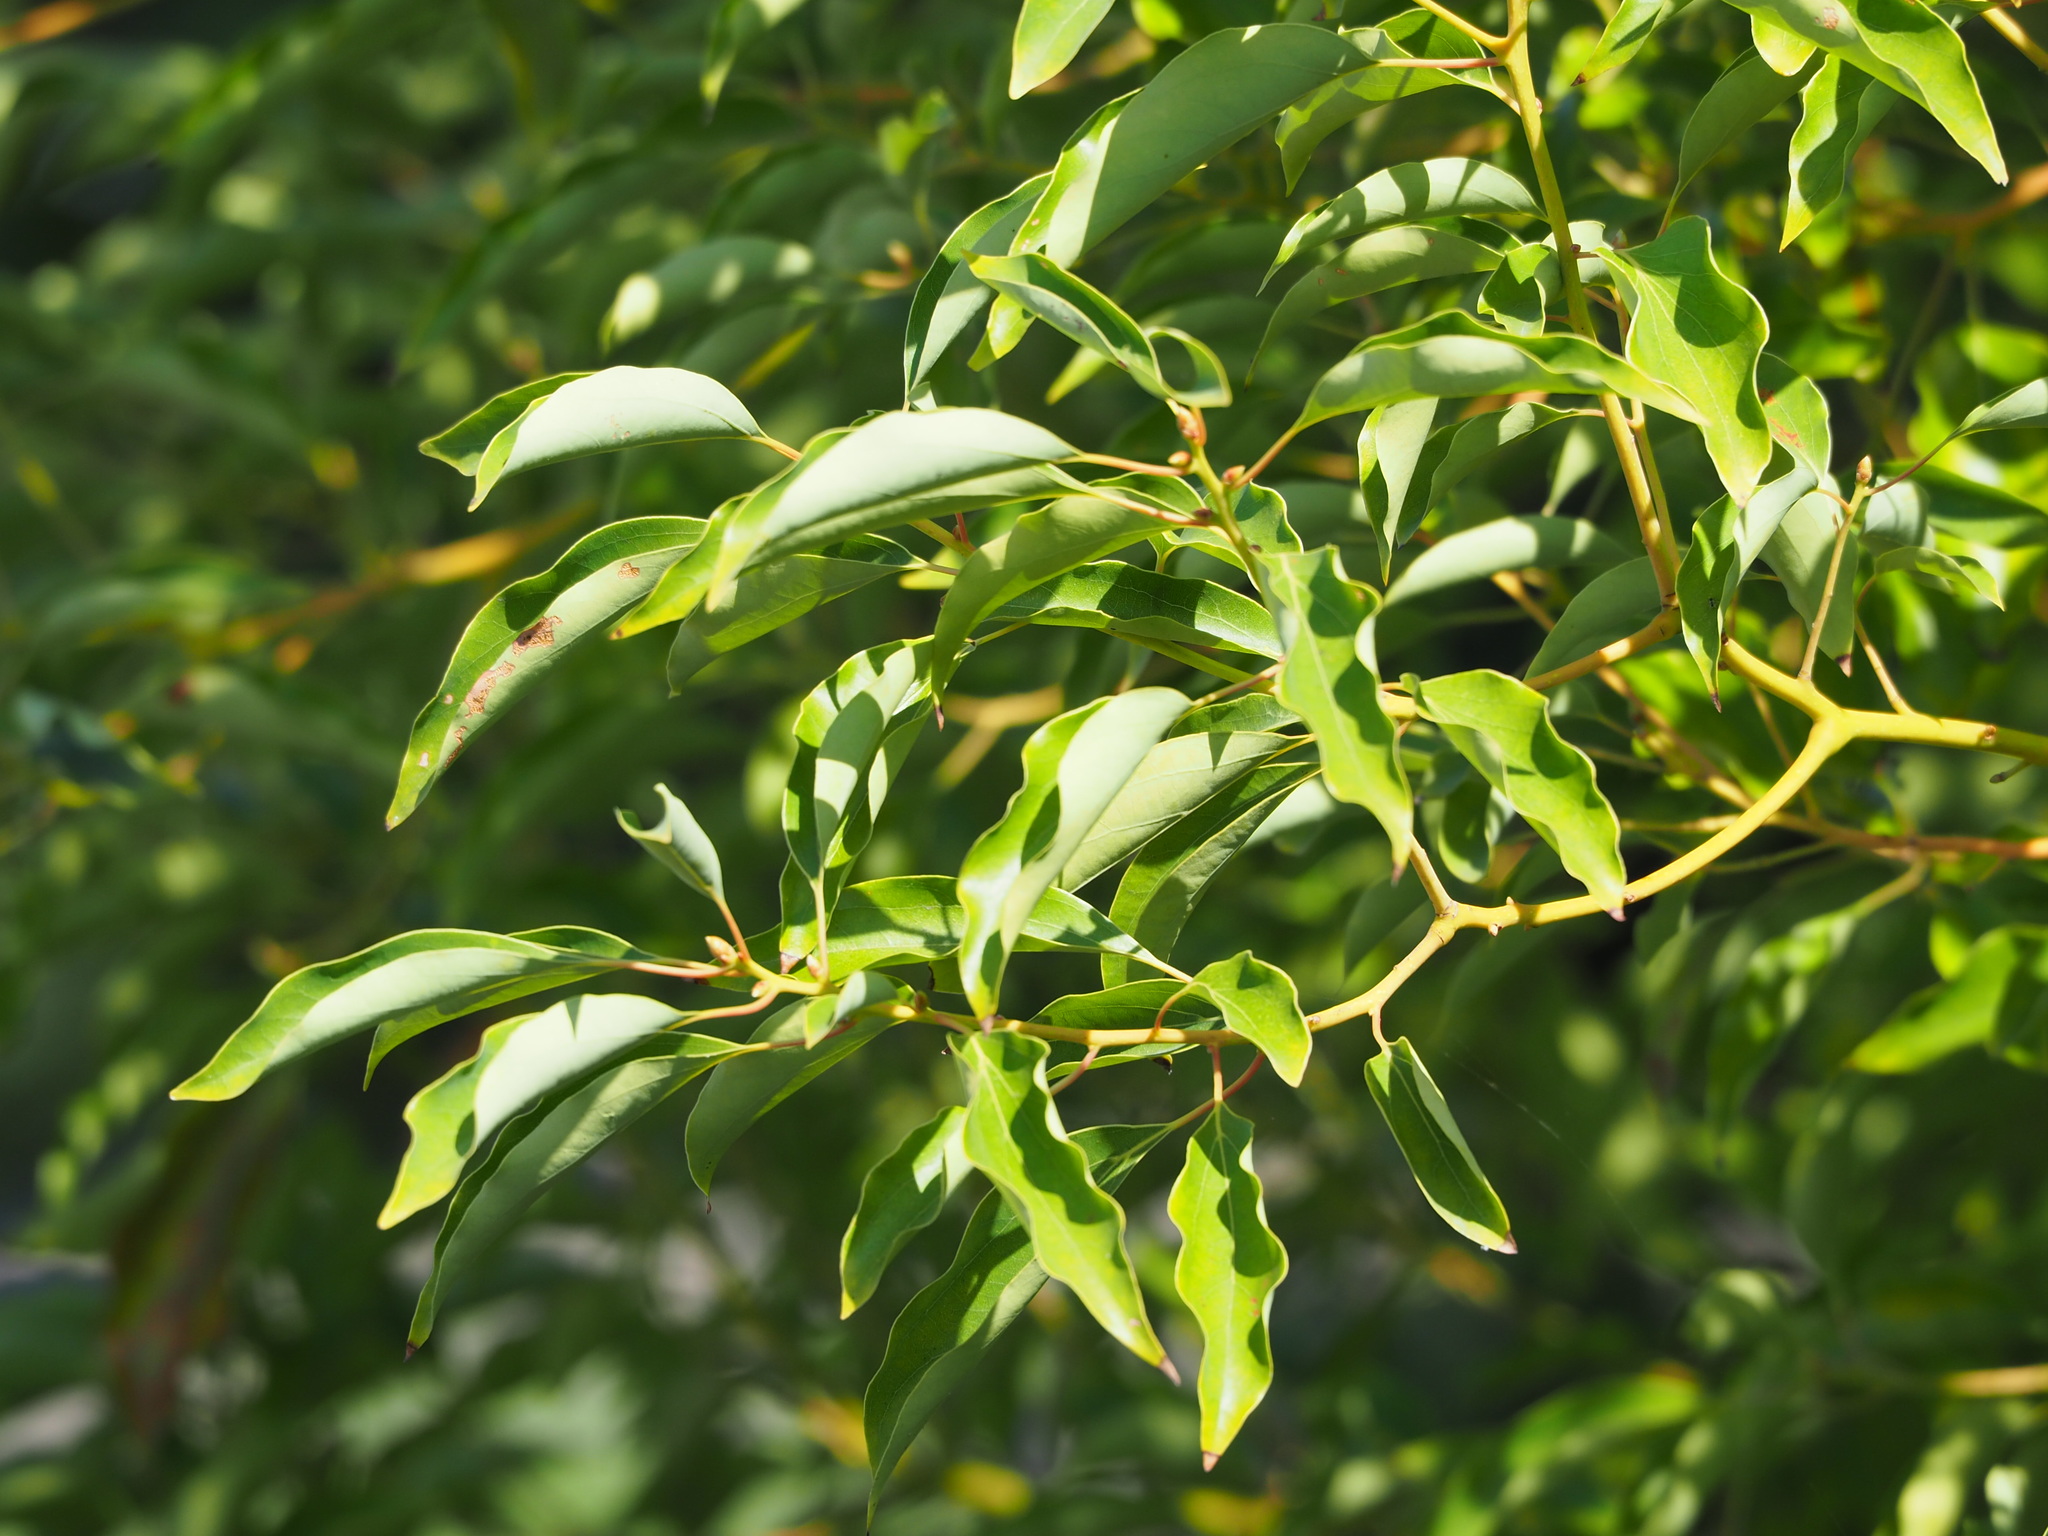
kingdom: Plantae
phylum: Tracheophyta
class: Magnoliopsida
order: Laurales
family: Lauraceae
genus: Cinnamomum
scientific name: Cinnamomum camphora
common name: Camphortree
